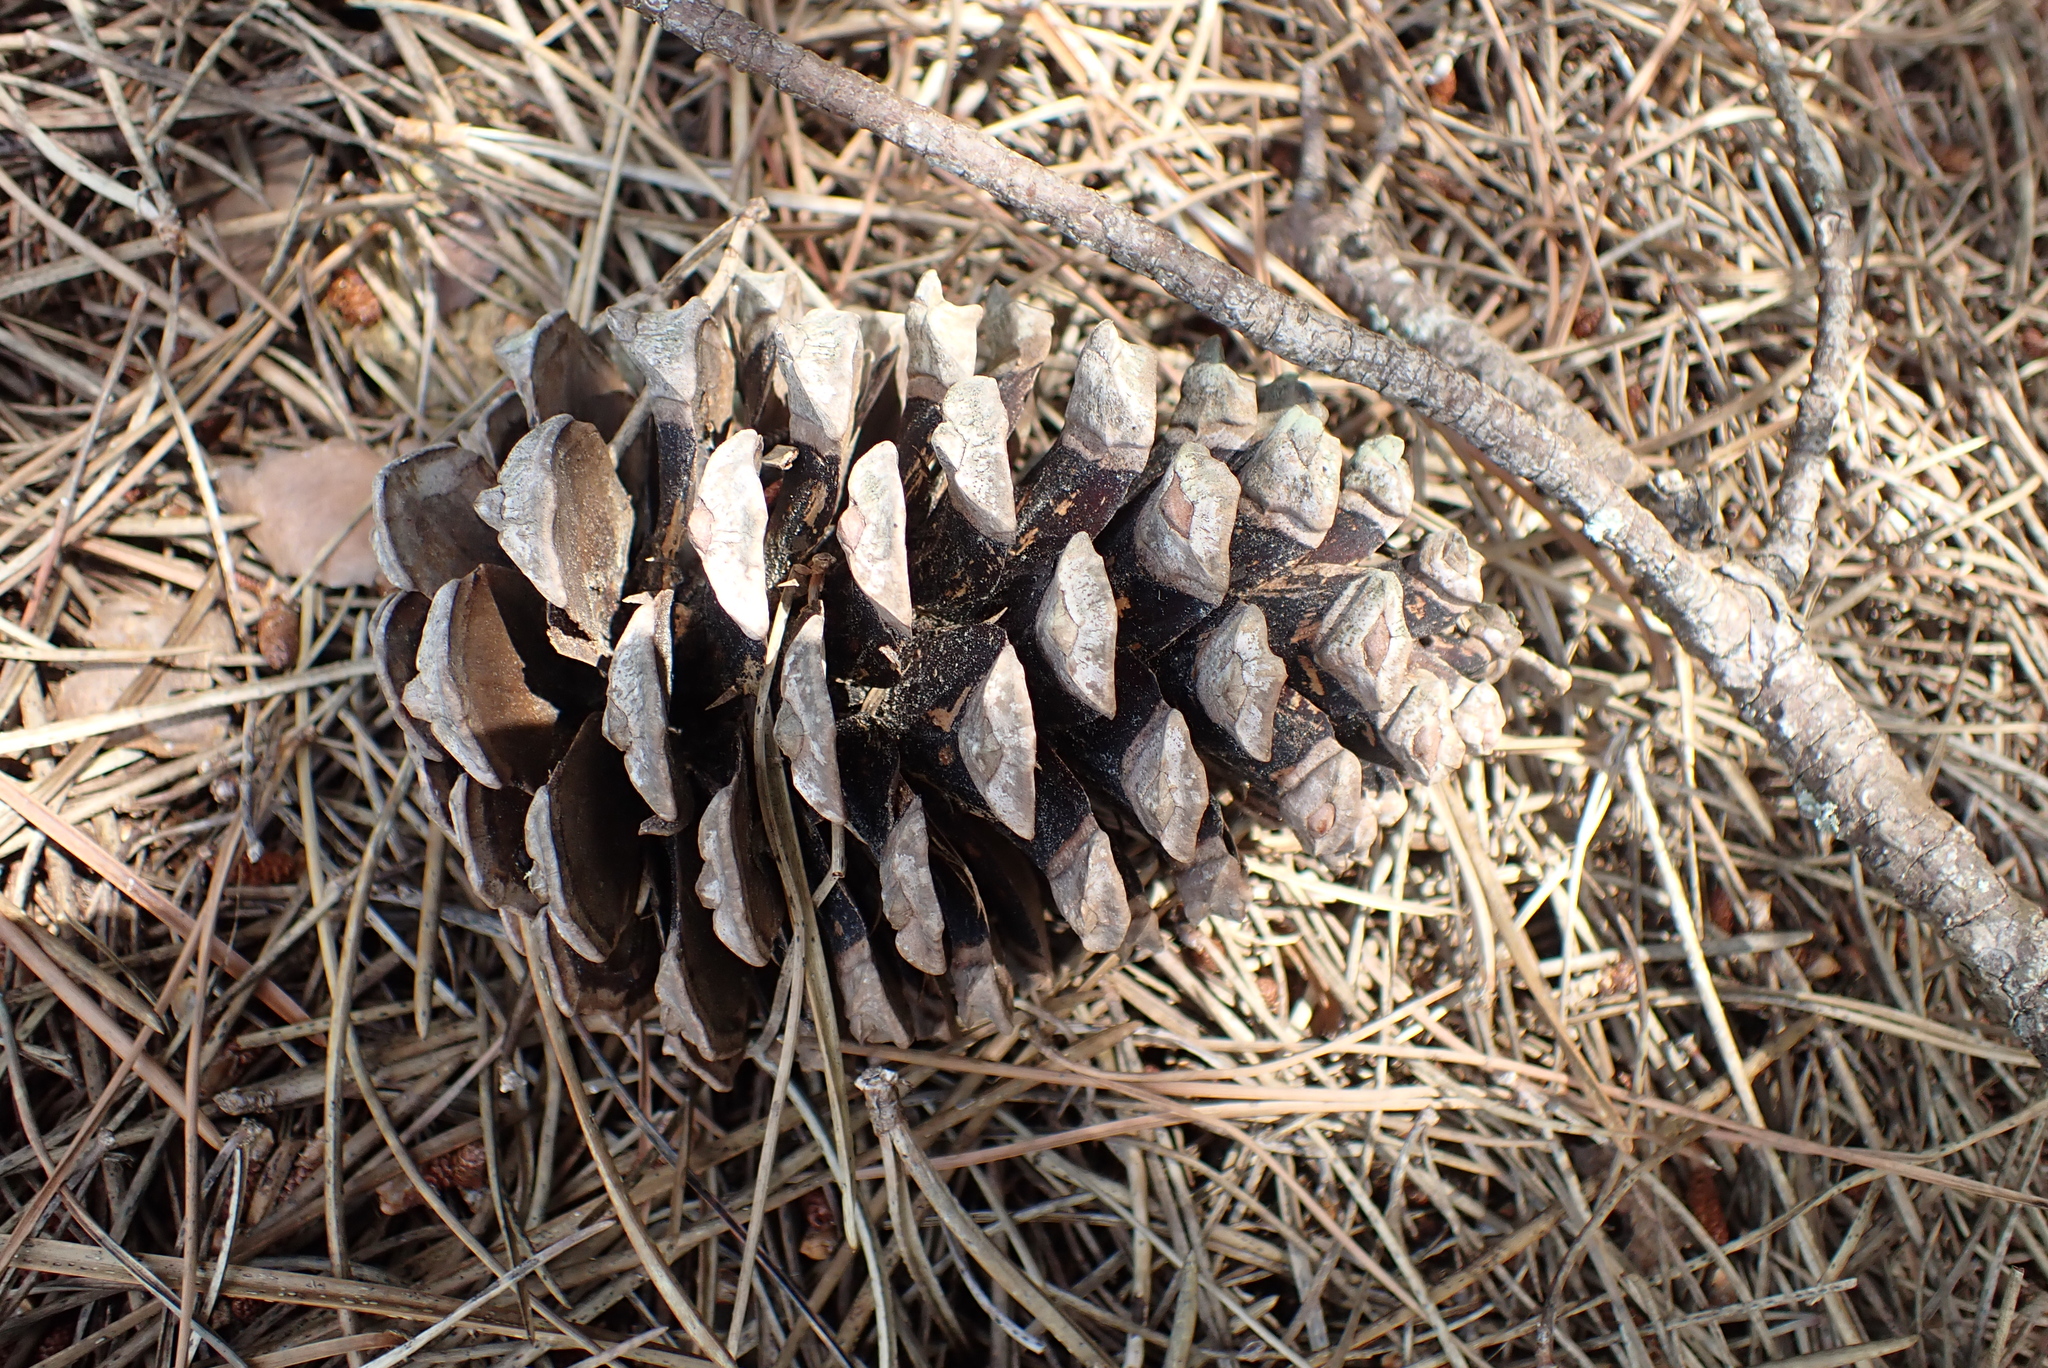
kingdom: Plantae
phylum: Tracheophyta
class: Pinopsida
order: Pinales
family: Pinaceae
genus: Pinus
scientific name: Pinus pinaster
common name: Maritime pine
